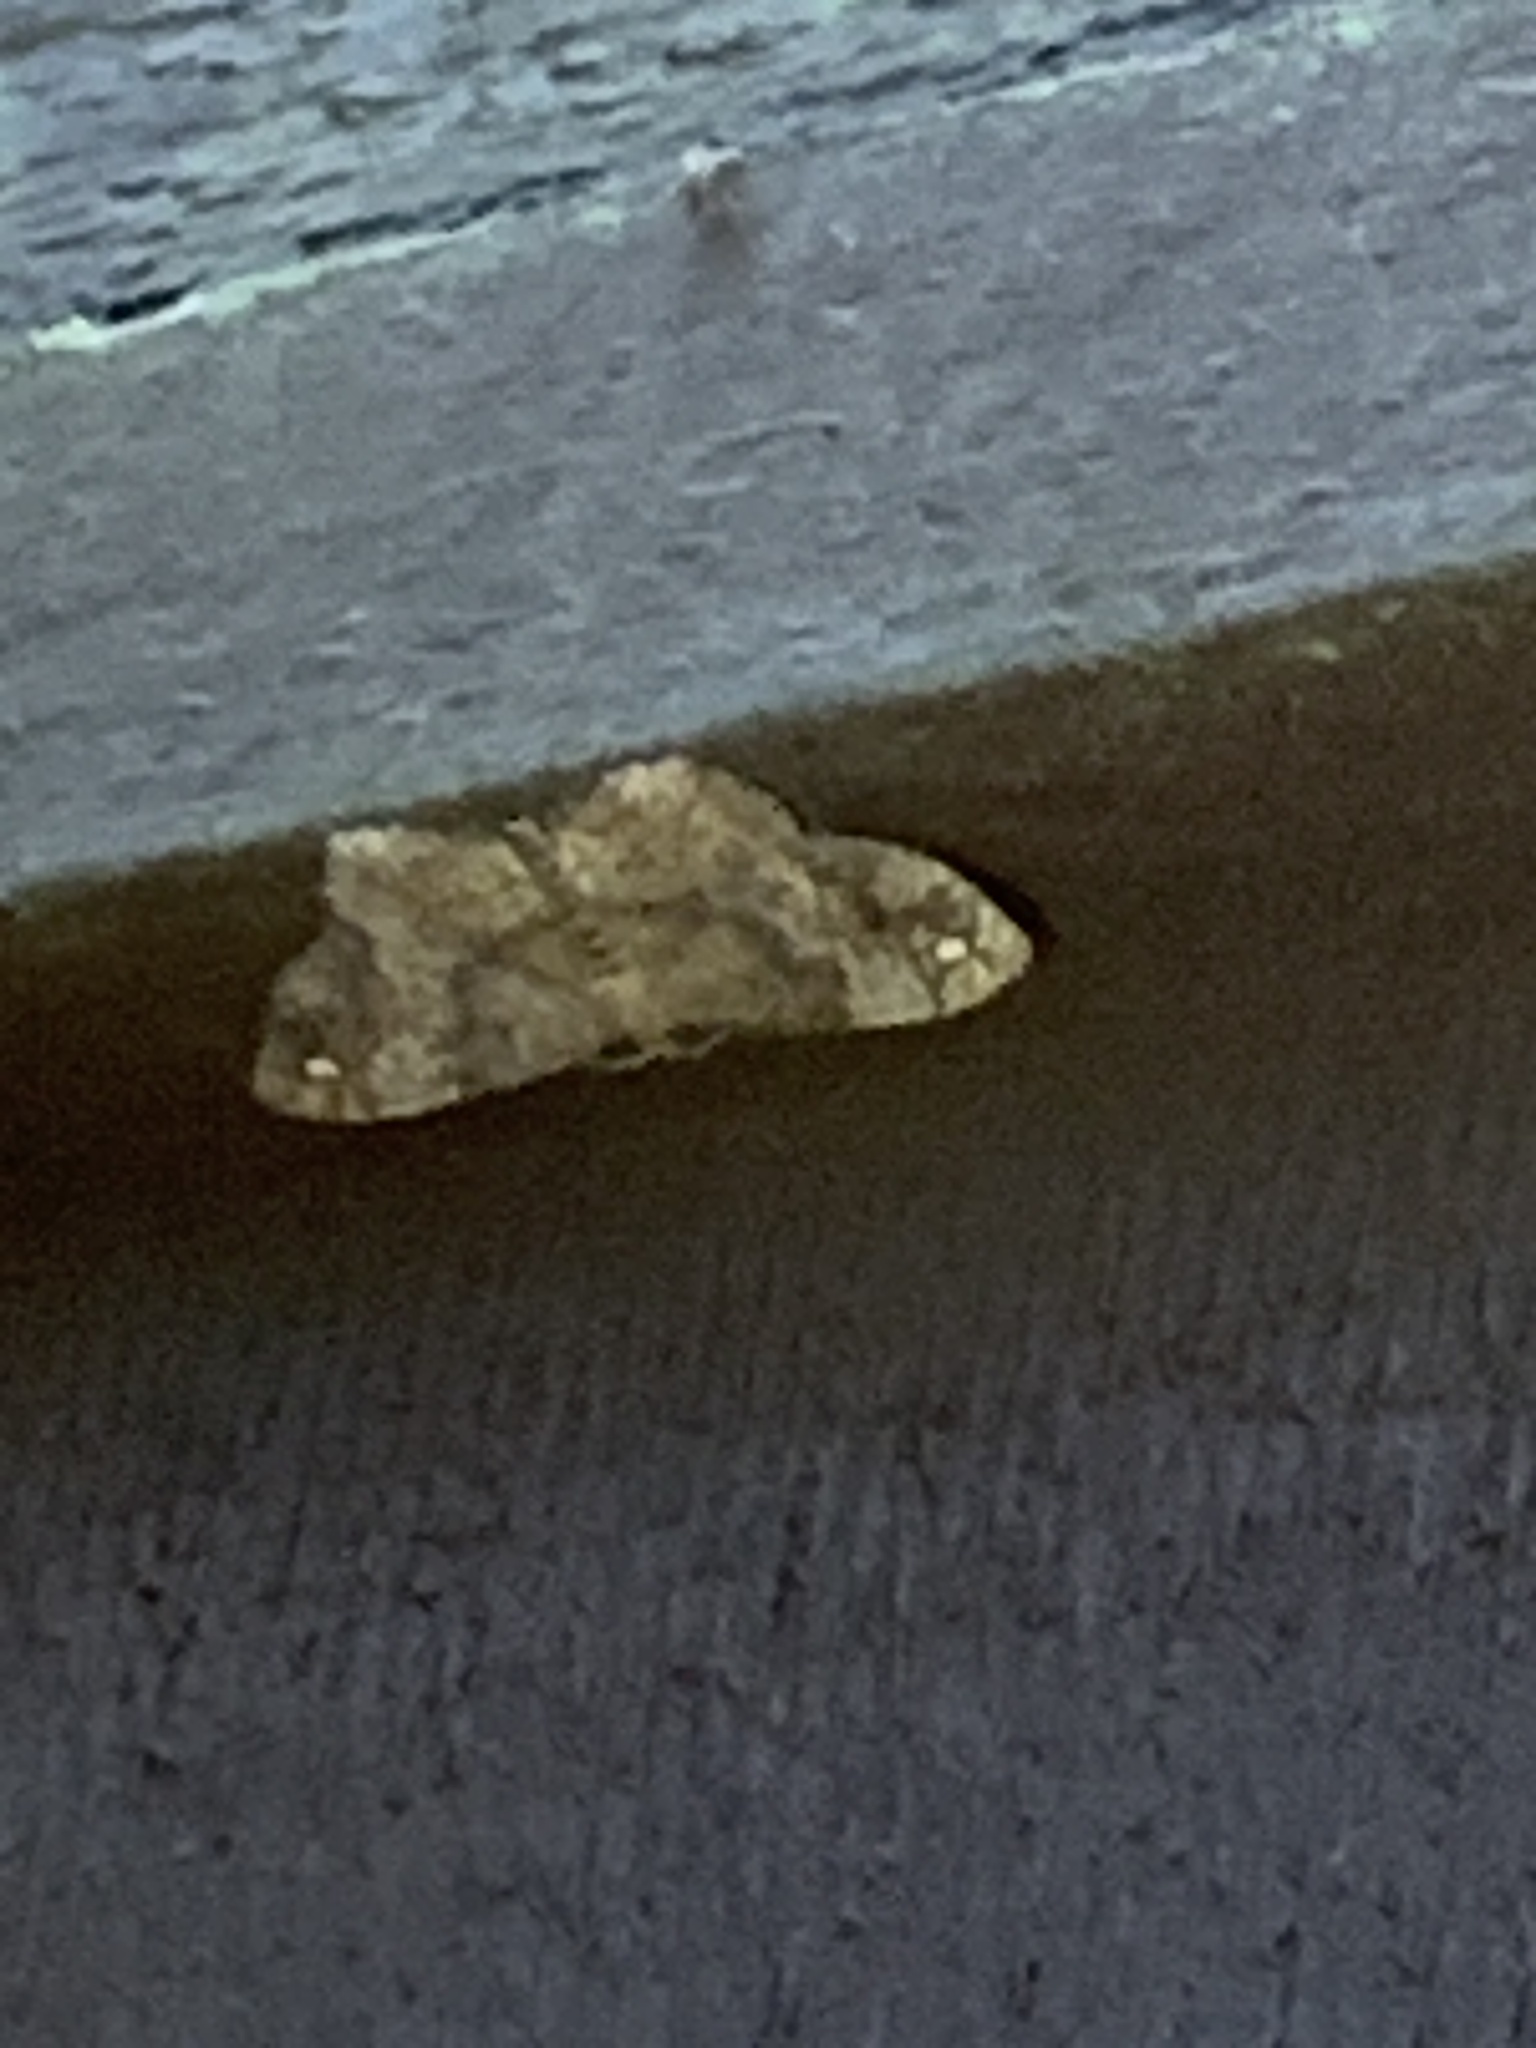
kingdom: Animalia
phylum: Arthropoda
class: Insecta
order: Lepidoptera
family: Geometridae
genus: Hypagyrtis
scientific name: Hypagyrtis unipunctata
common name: One-spotted variant
